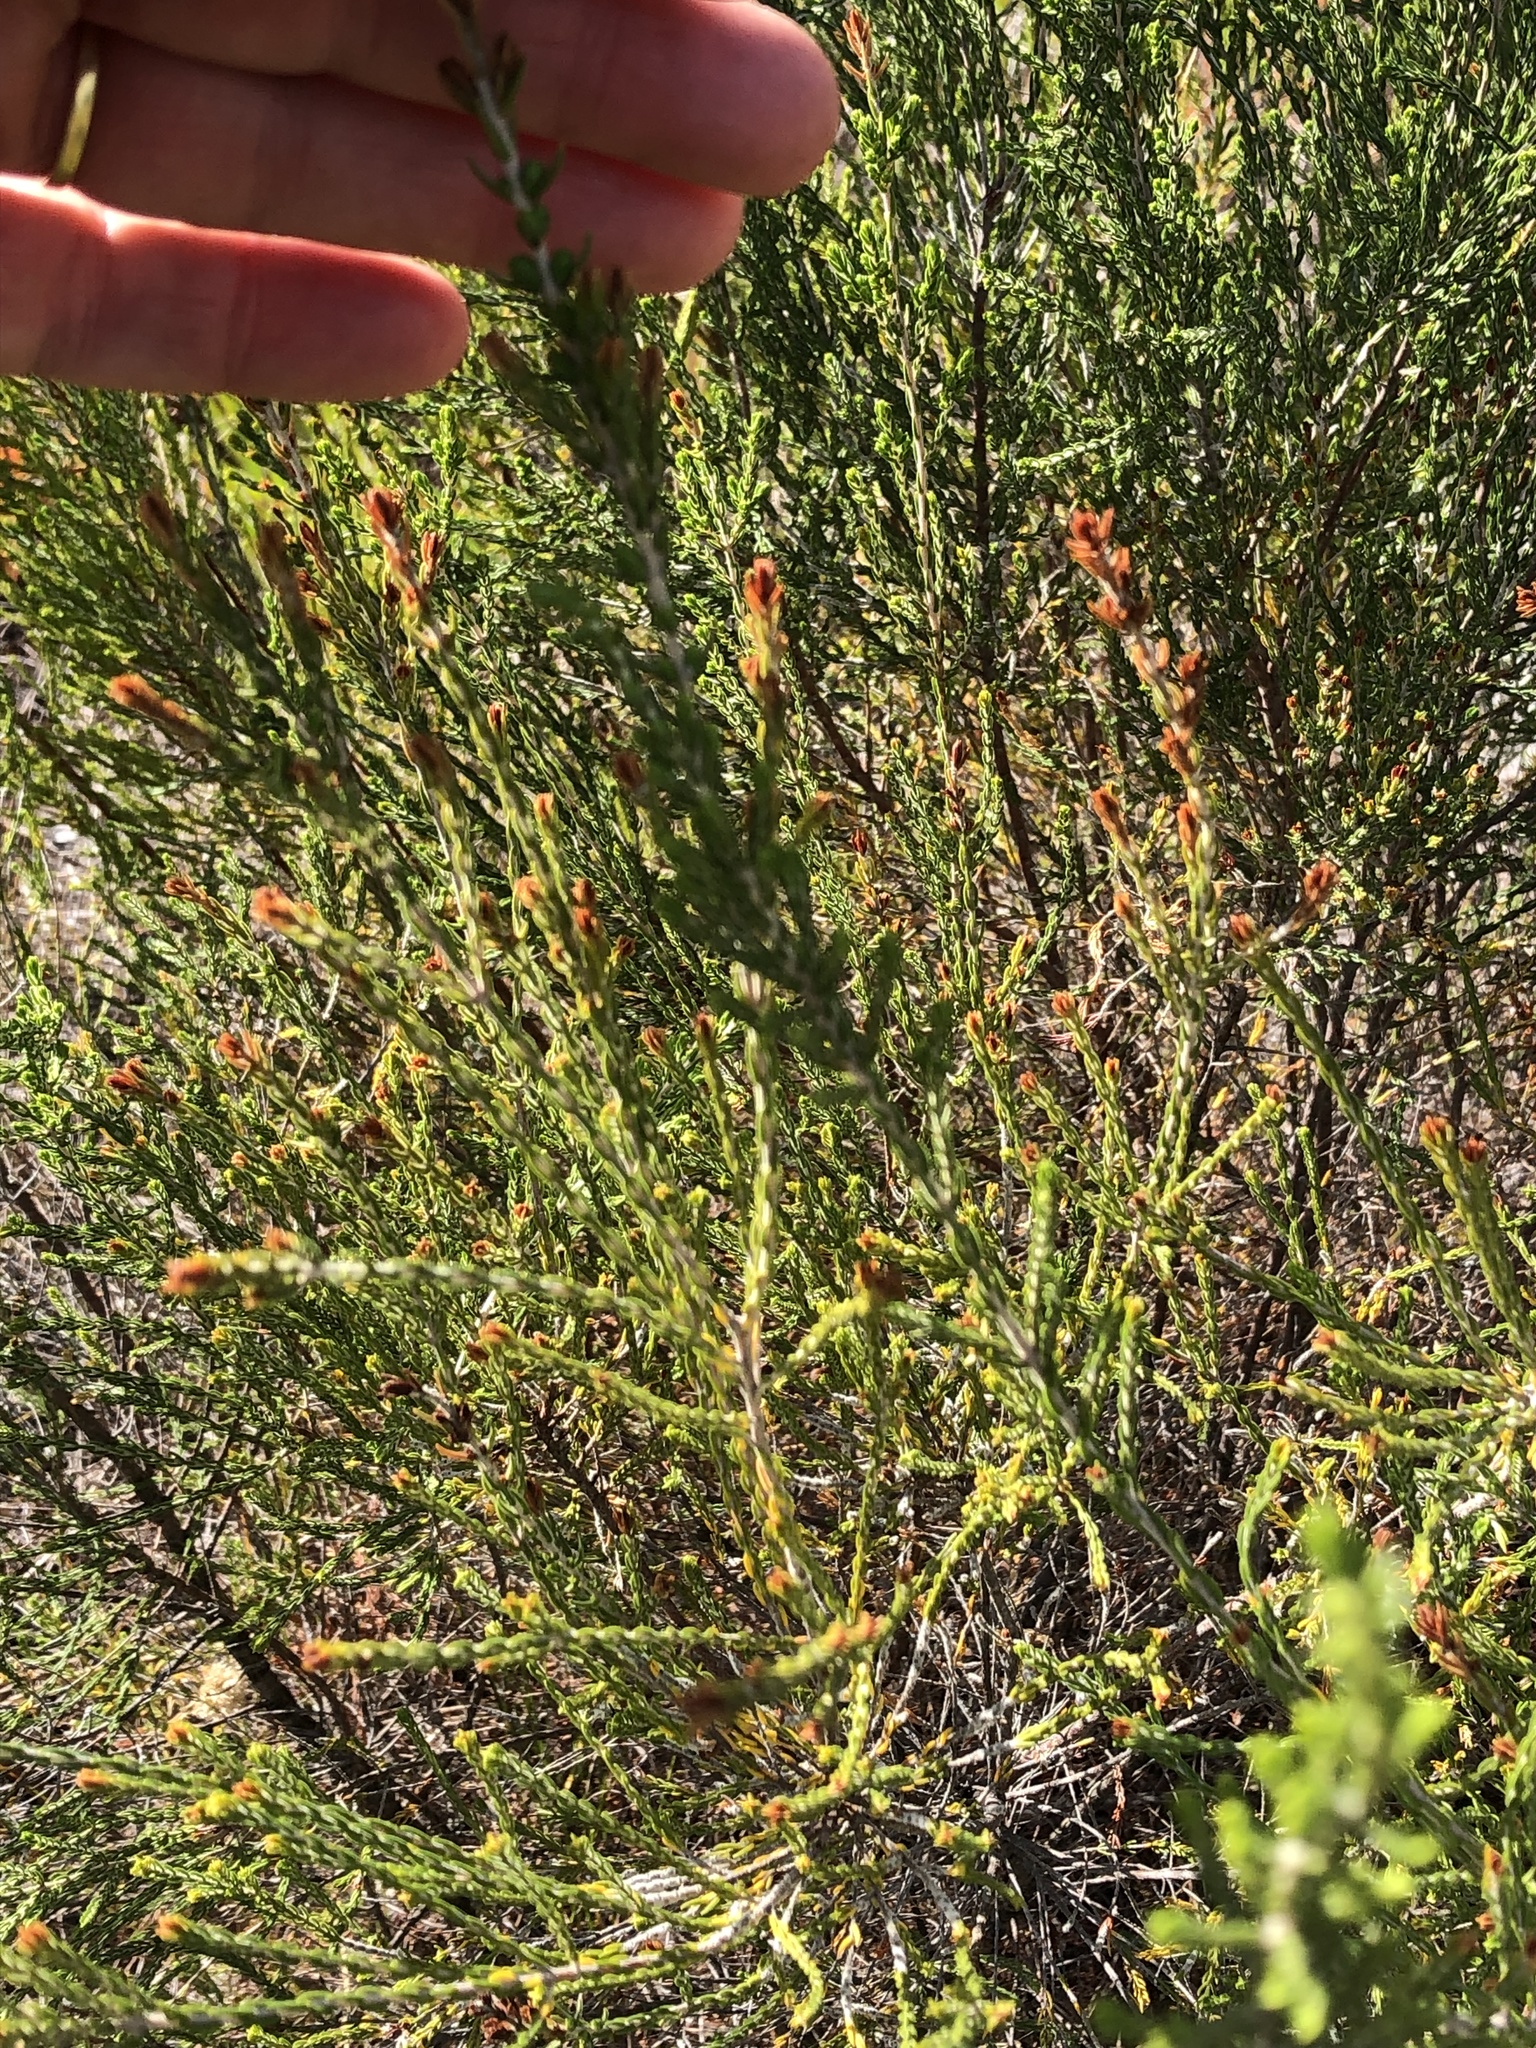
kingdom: Plantae
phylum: Tracheophyta
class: Magnoliopsida
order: Malvales
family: Thymelaeaceae
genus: Passerina
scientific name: Passerina corymbosa
